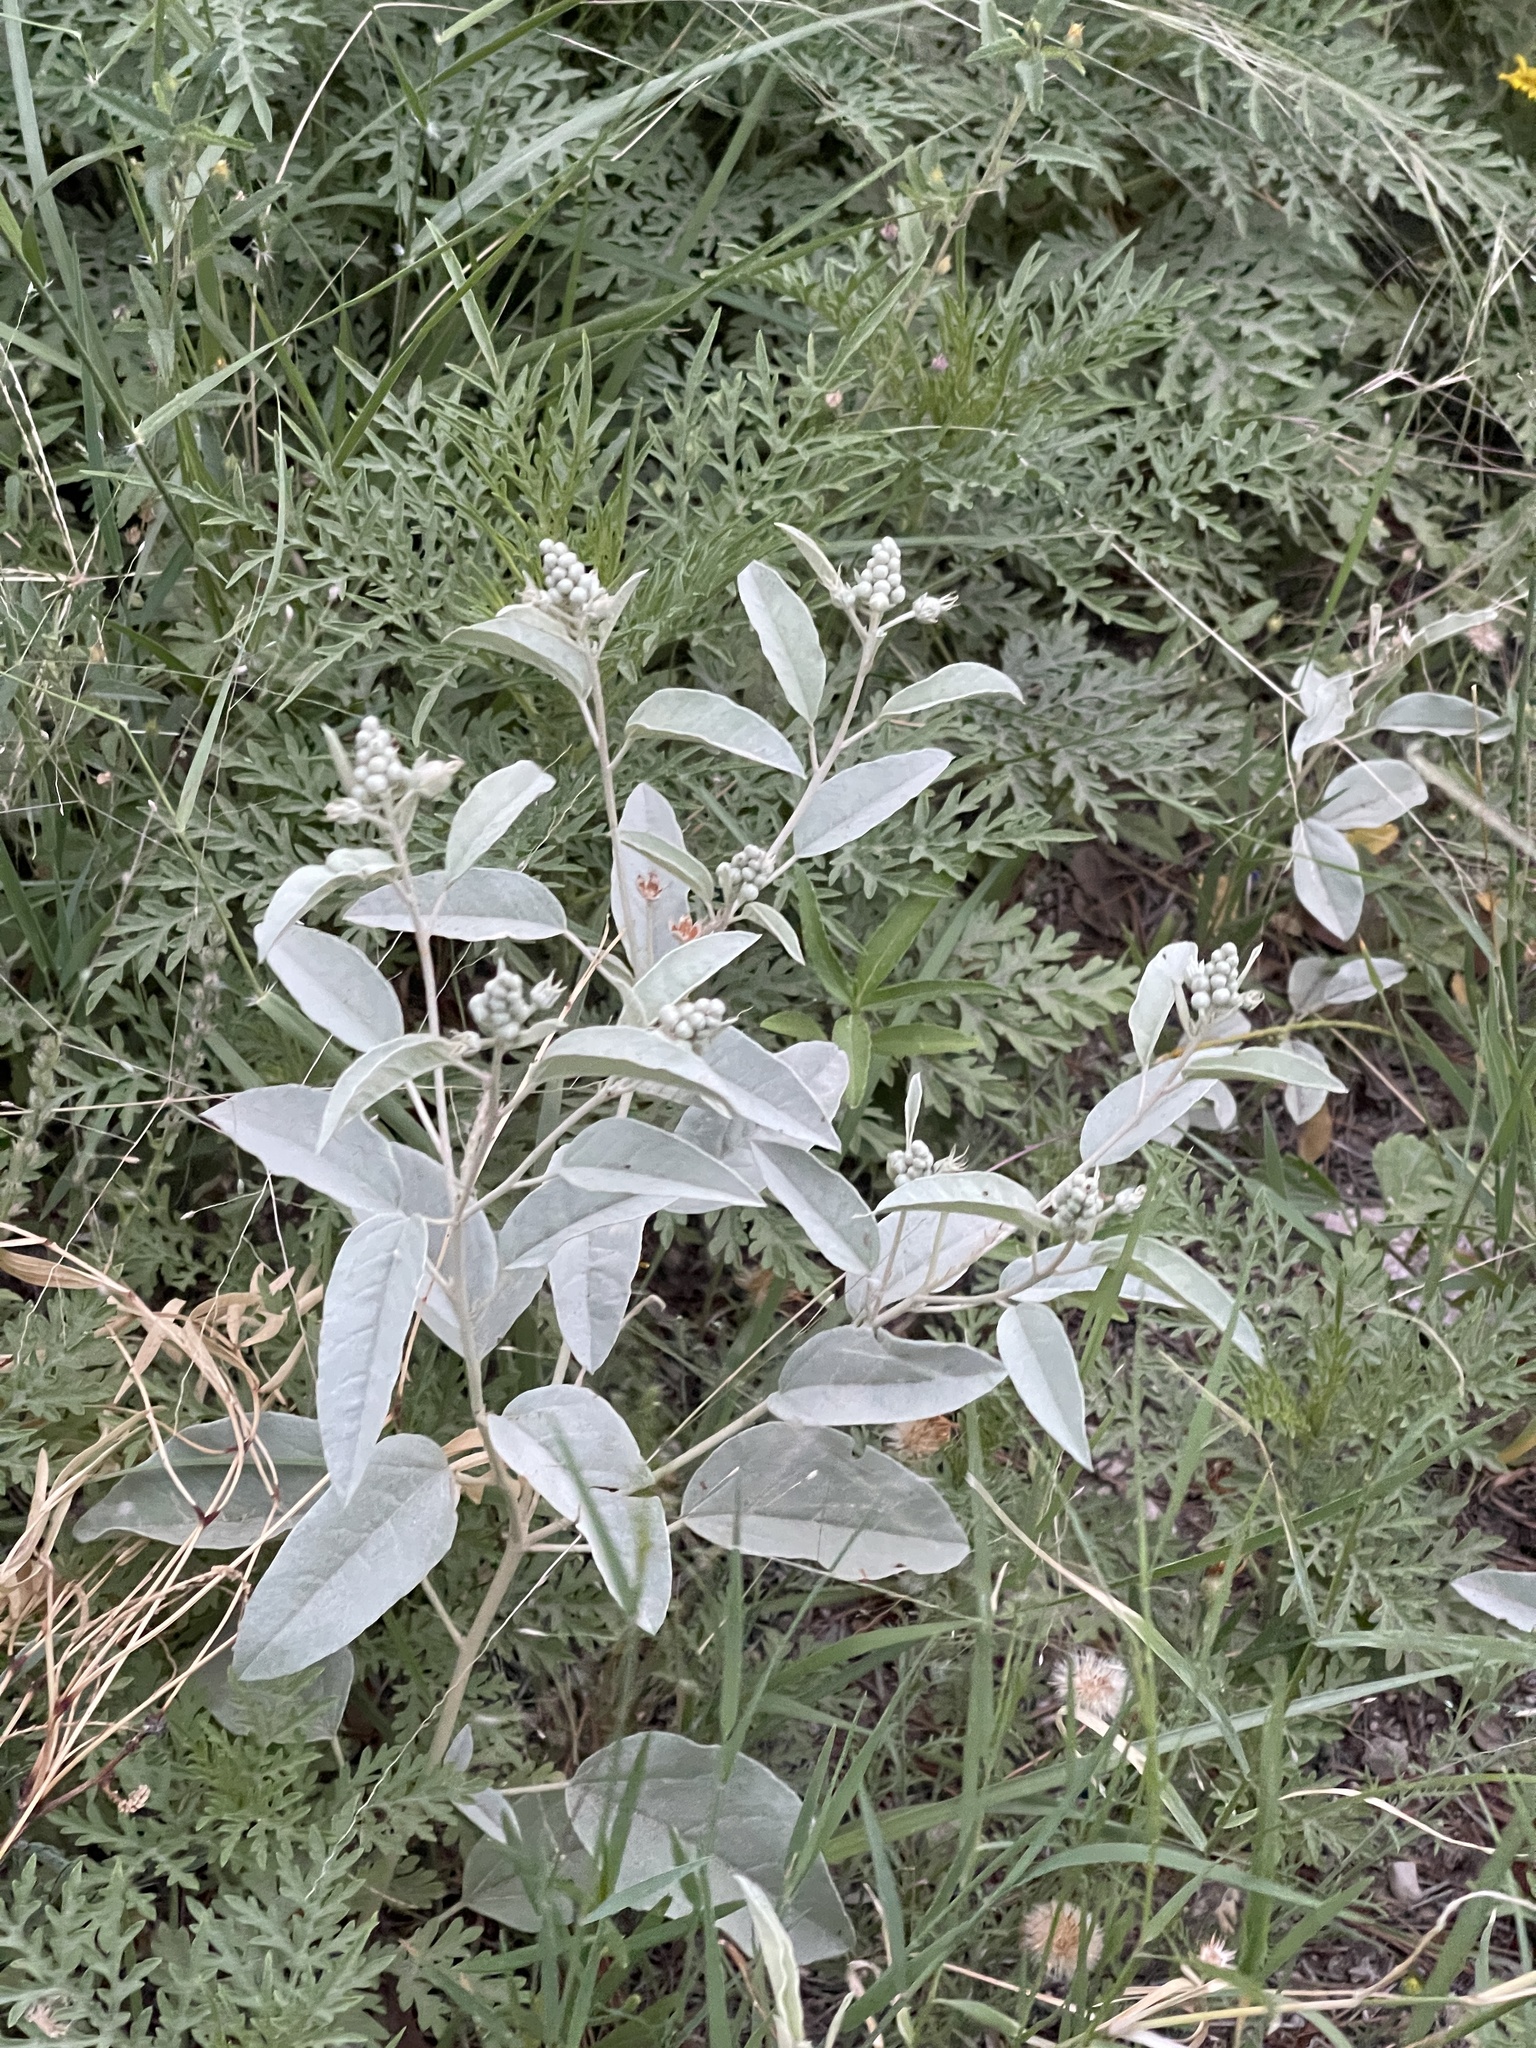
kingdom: Plantae
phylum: Tracheophyta
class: Magnoliopsida
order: Malpighiales
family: Euphorbiaceae
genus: Croton
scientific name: Croton pottsii
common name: Leatherweed
